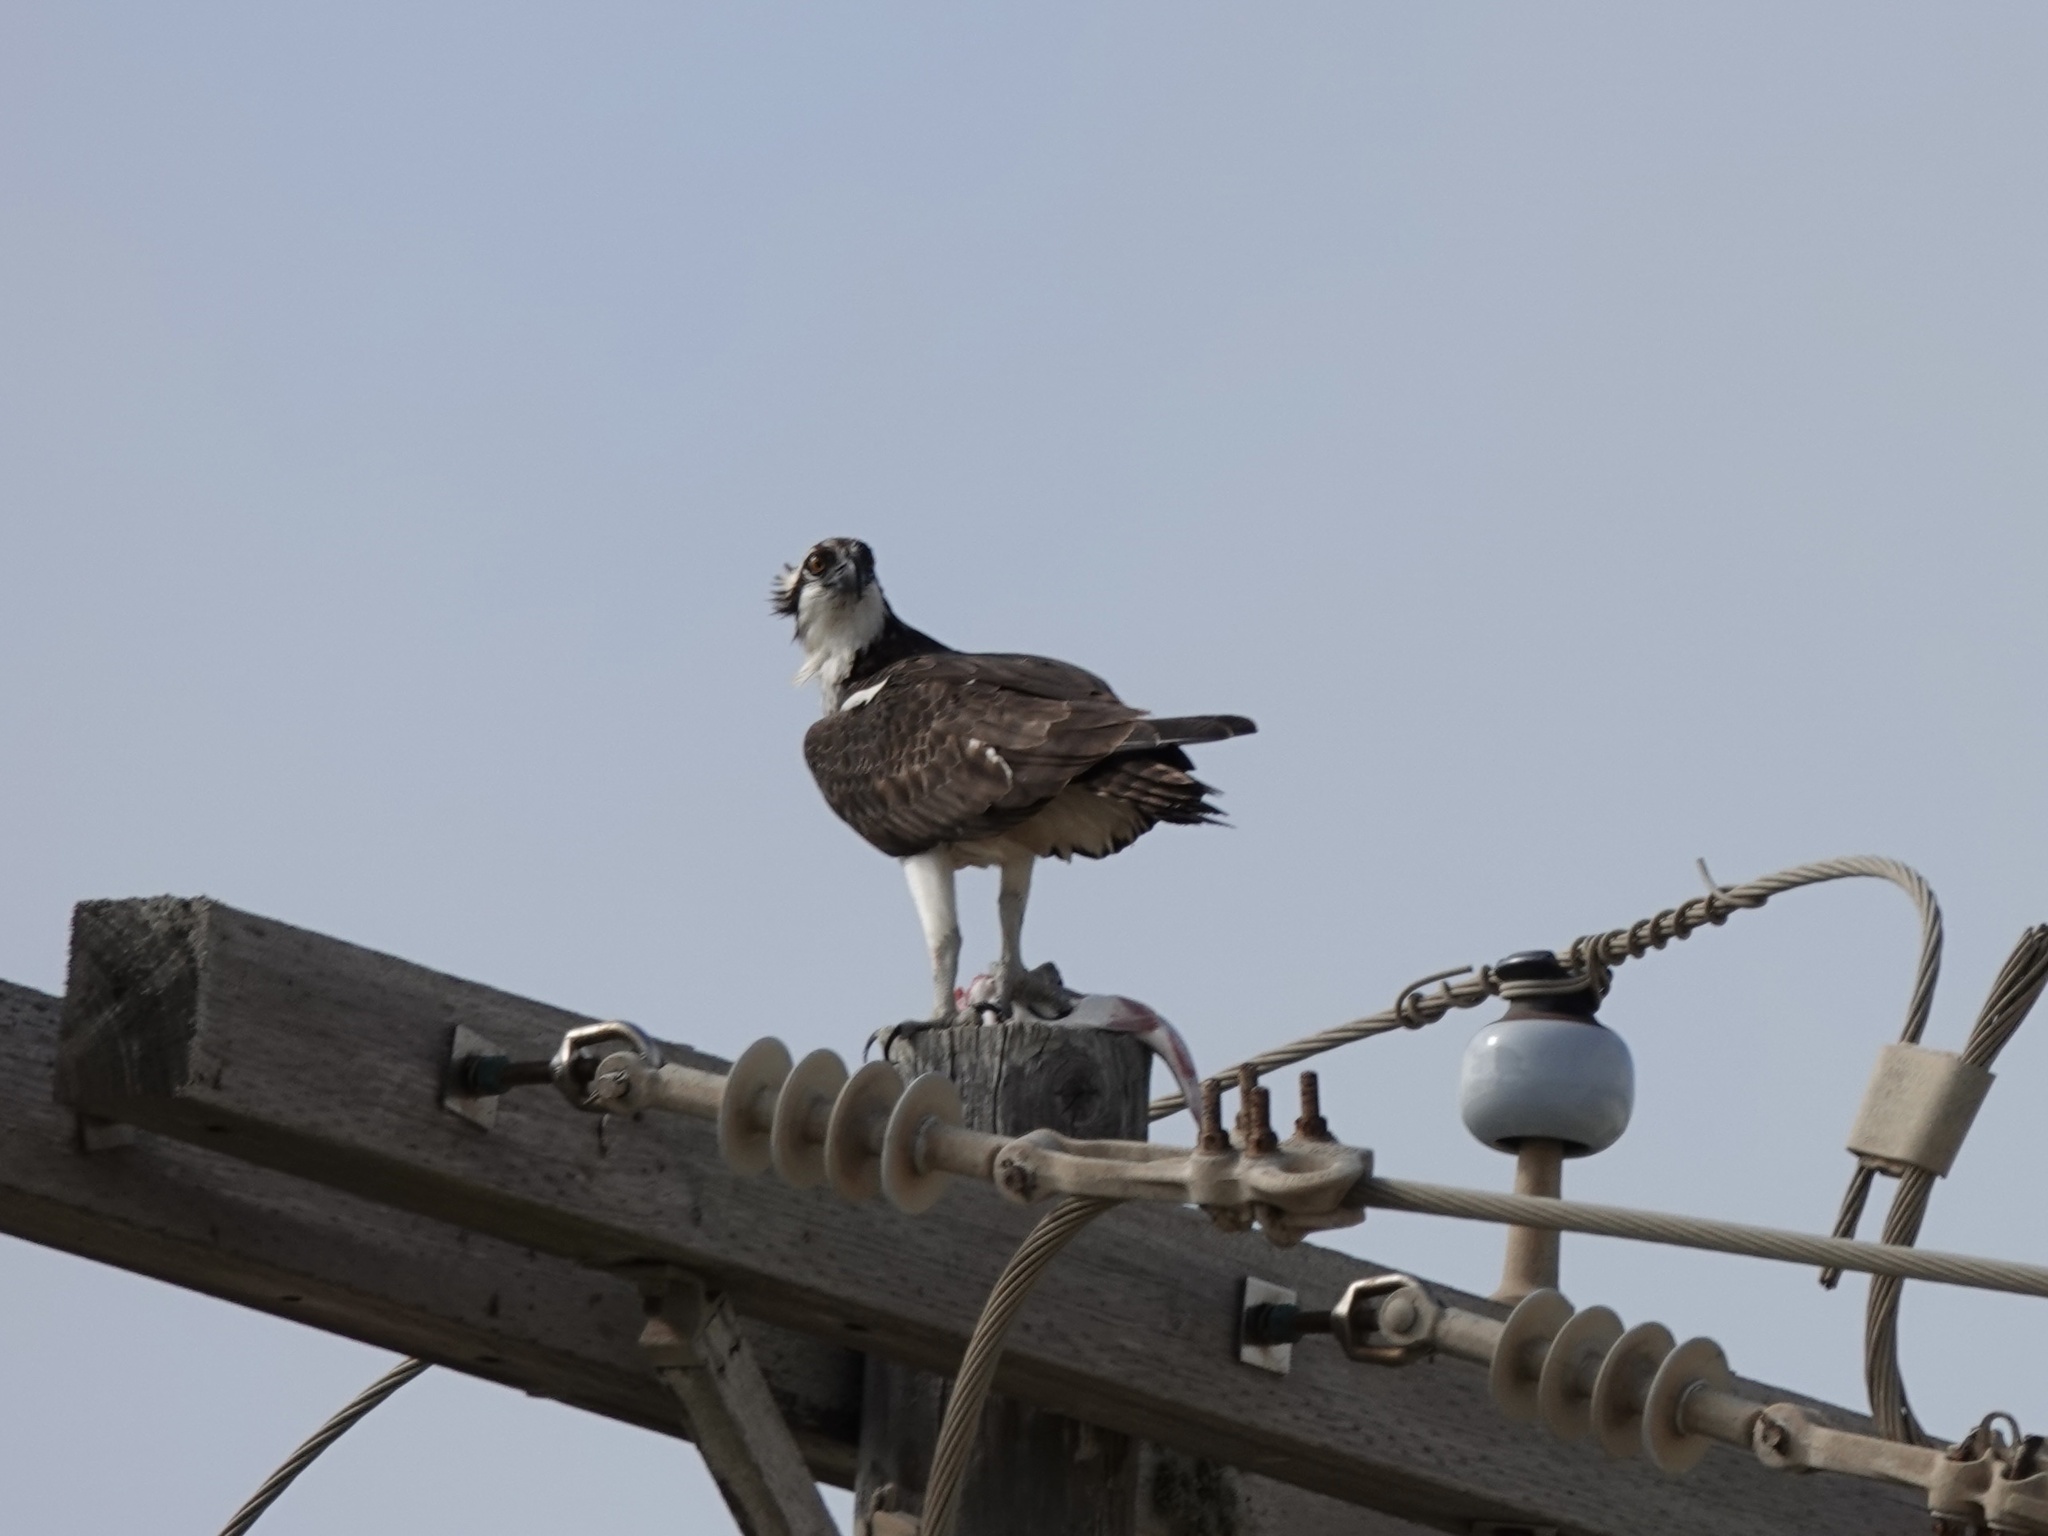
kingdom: Animalia
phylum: Chordata
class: Aves
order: Accipitriformes
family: Pandionidae
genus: Pandion
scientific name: Pandion haliaetus
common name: Osprey
